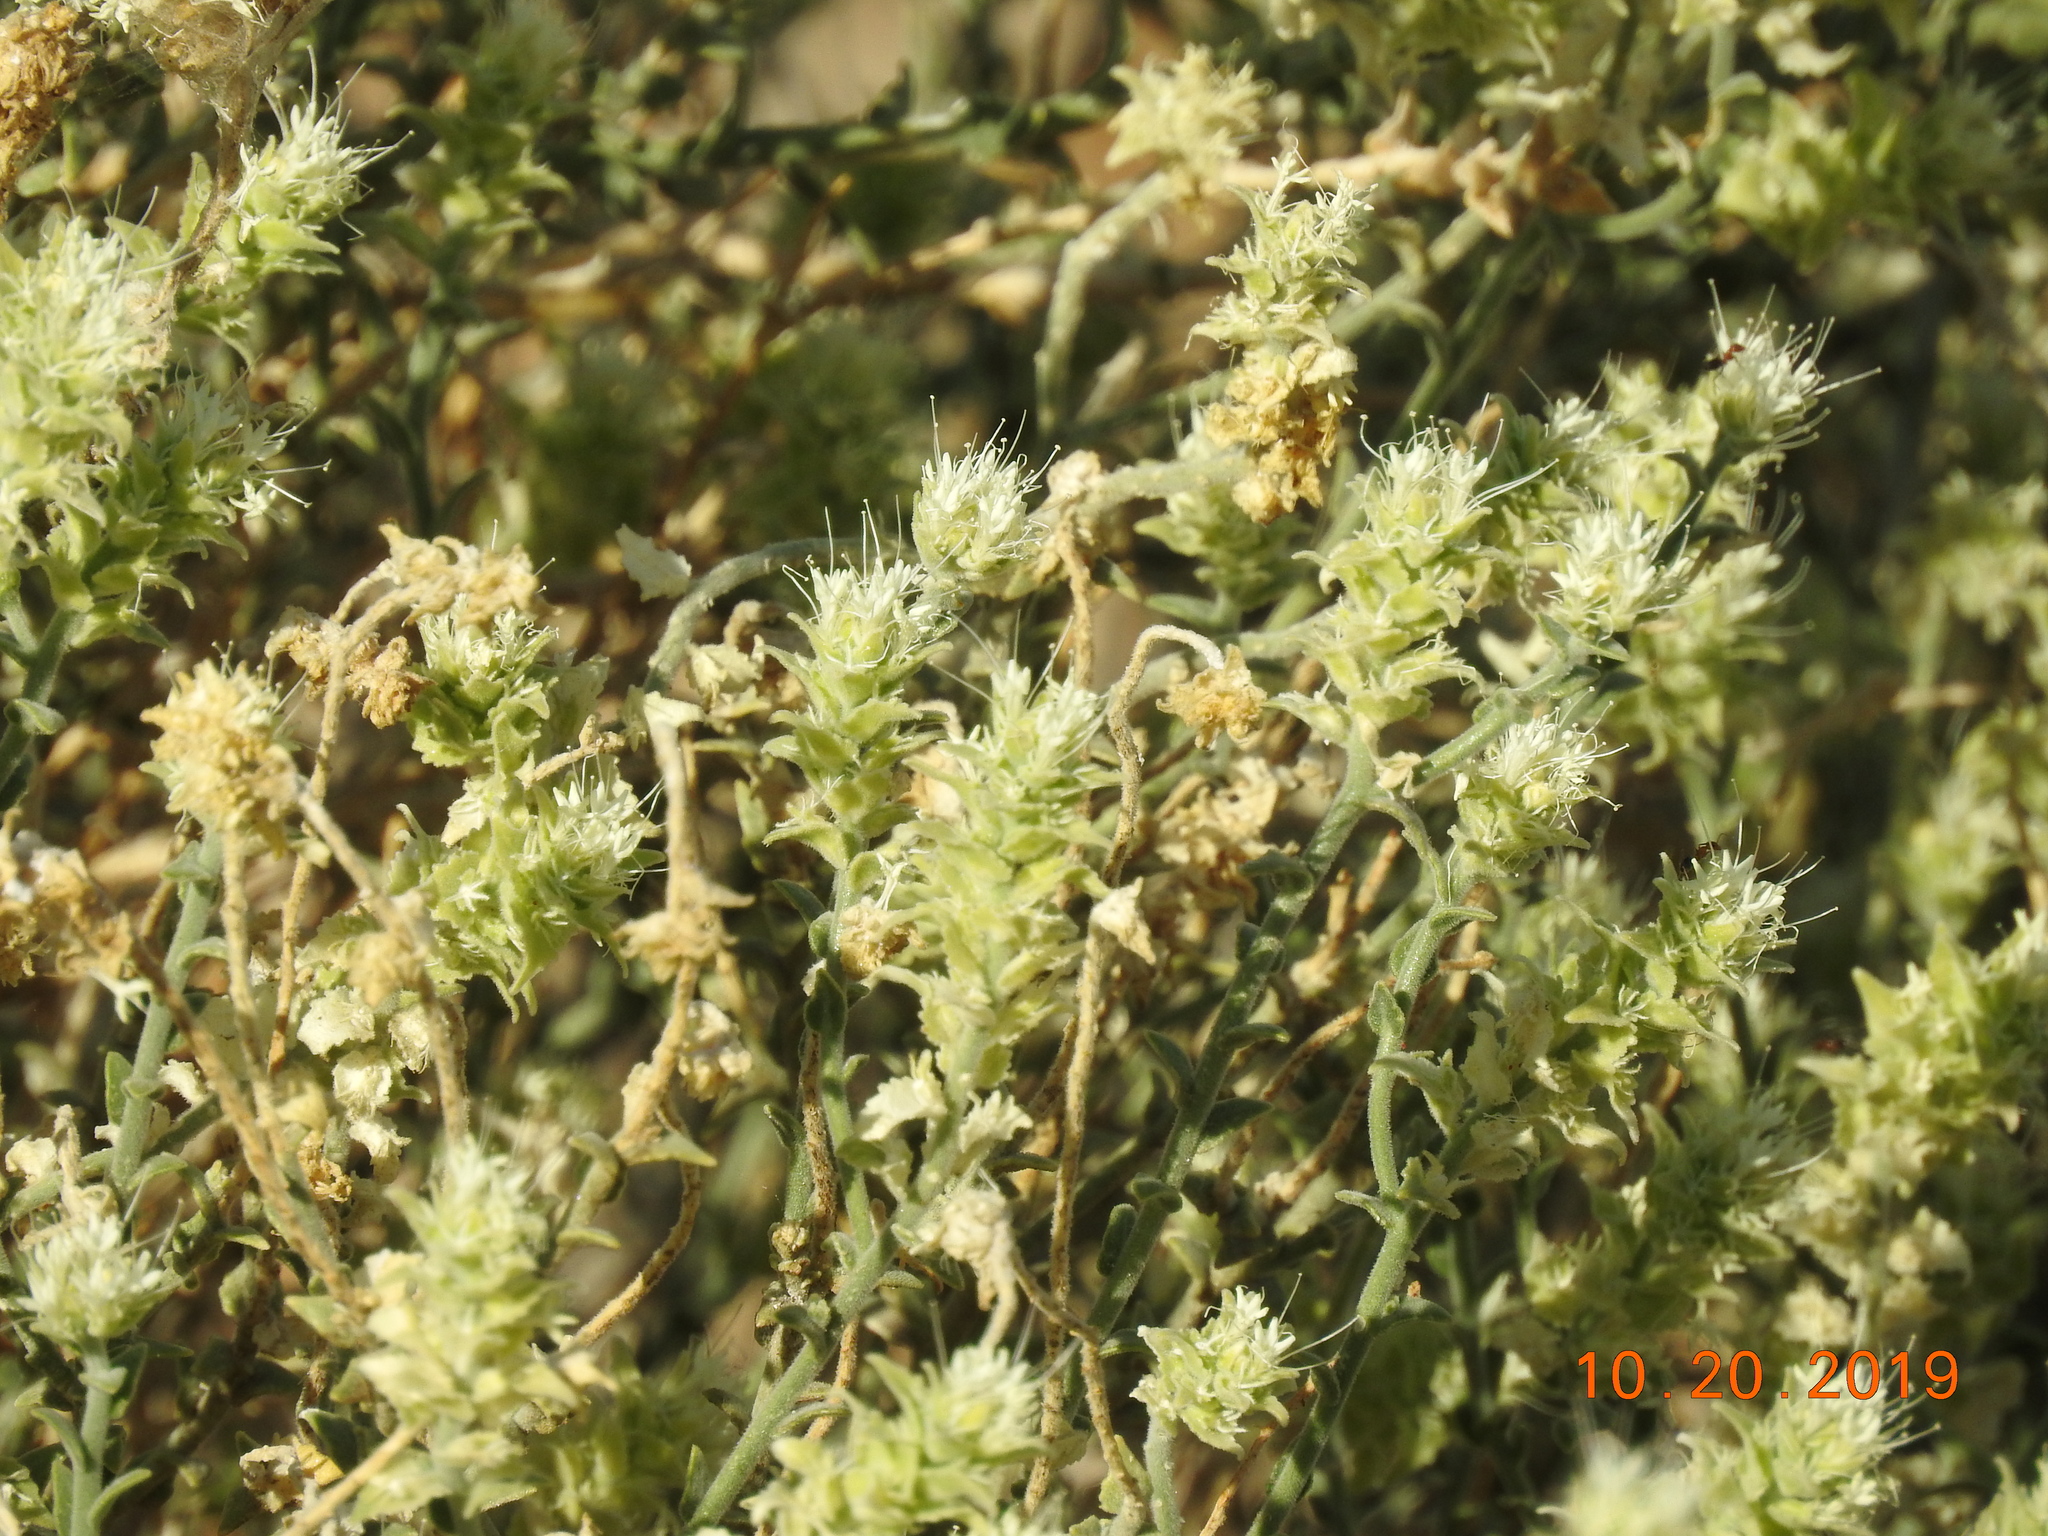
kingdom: Plantae
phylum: Tracheophyta
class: Magnoliopsida
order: Cornales
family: Loasaceae
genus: Petalonyx
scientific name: Petalonyx thurberi
